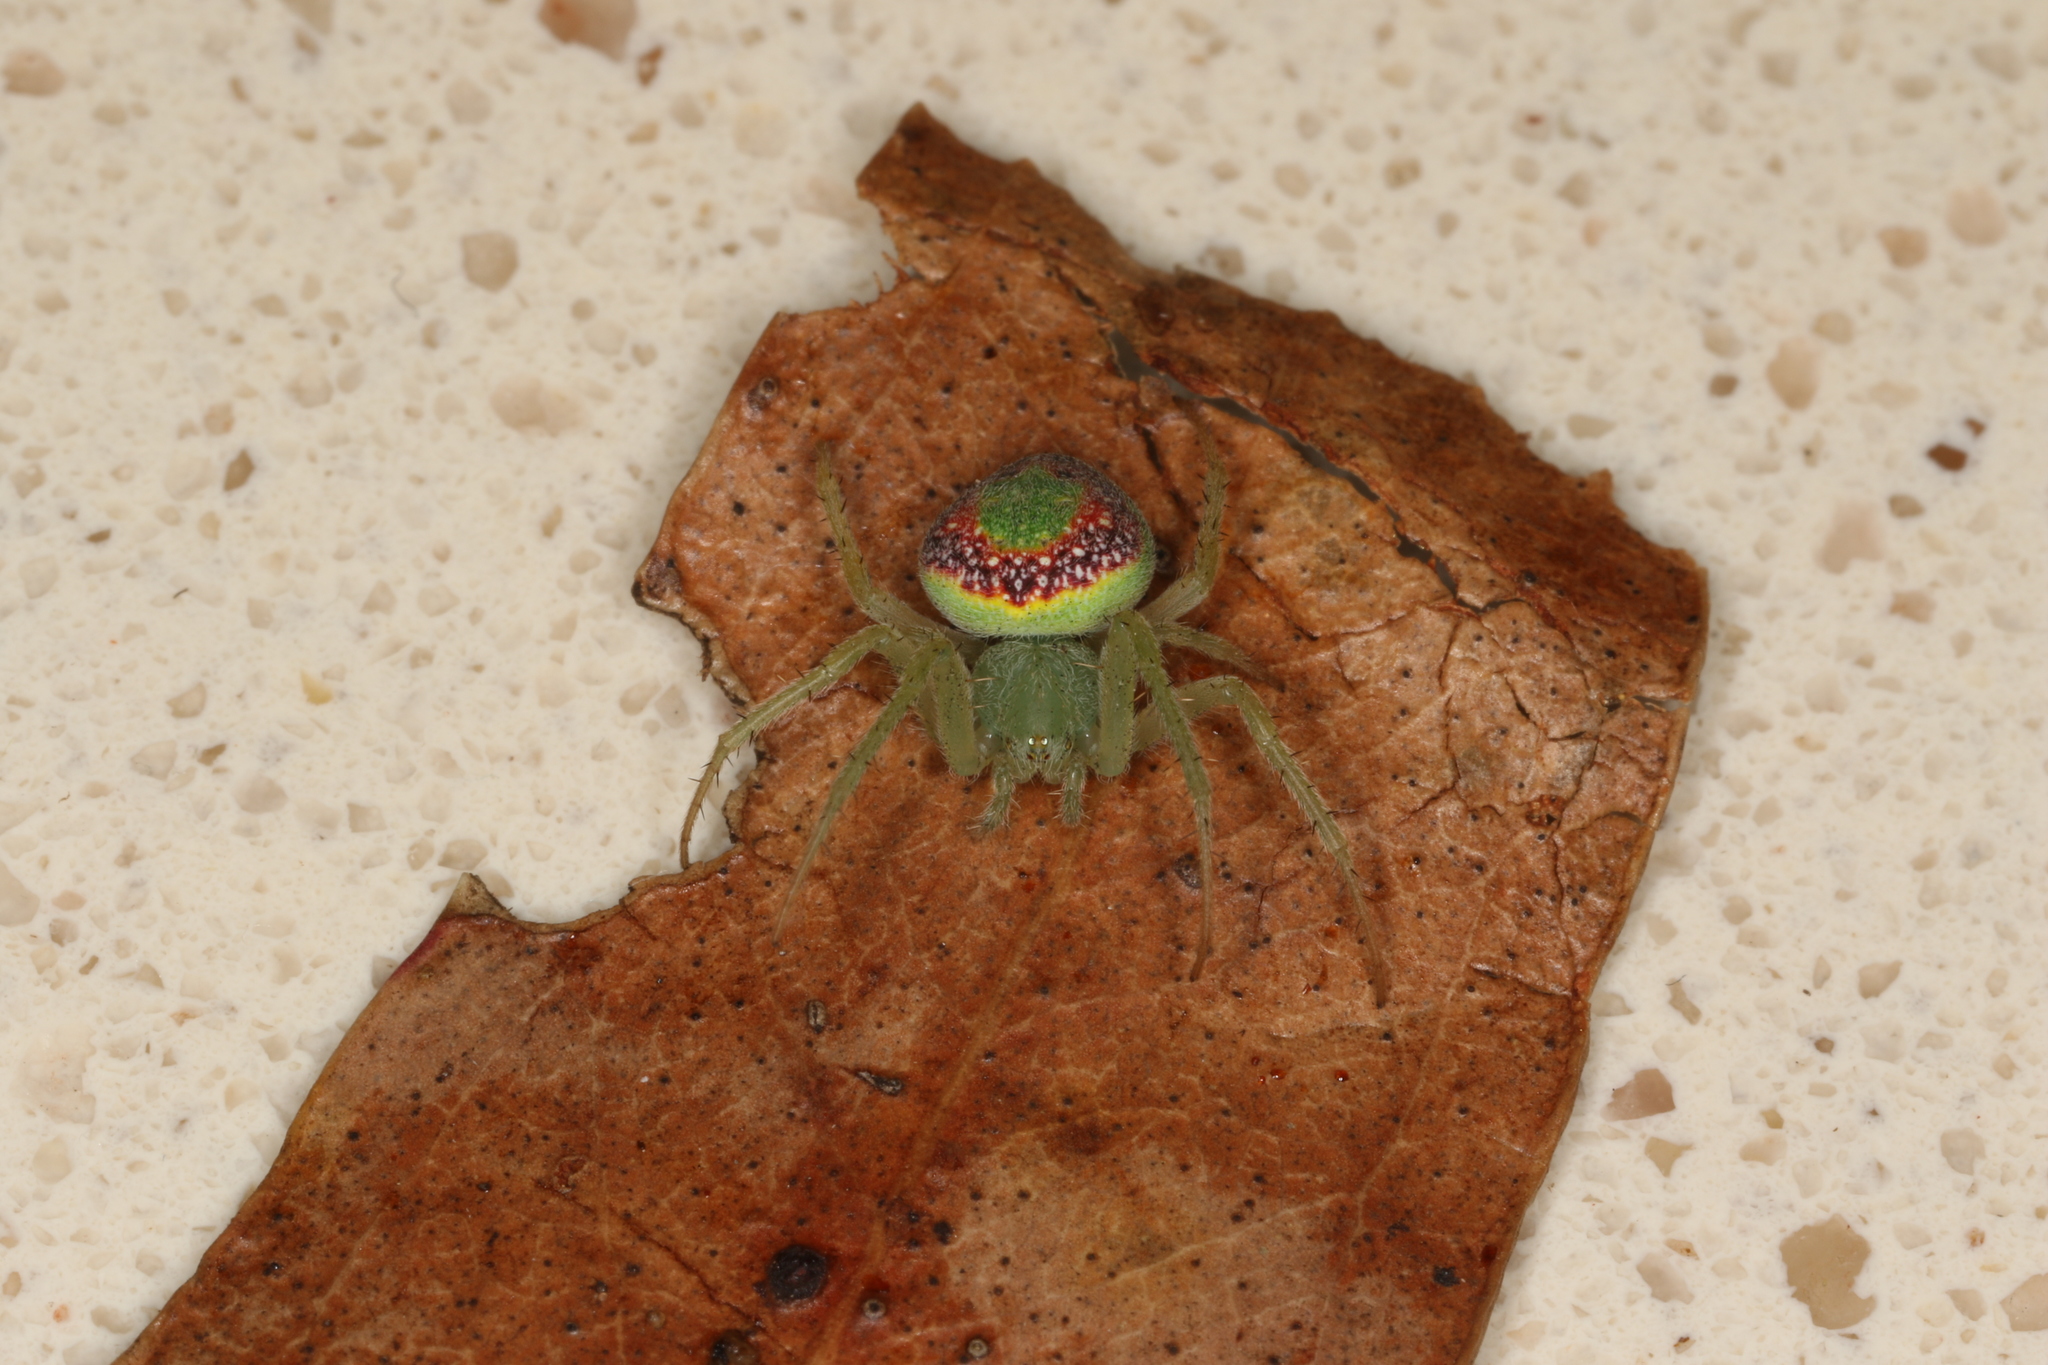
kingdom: Animalia
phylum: Arthropoda
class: Arachnida
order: Araneae
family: Araneidae
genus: Araneus
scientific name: Araneus circulissparsus
